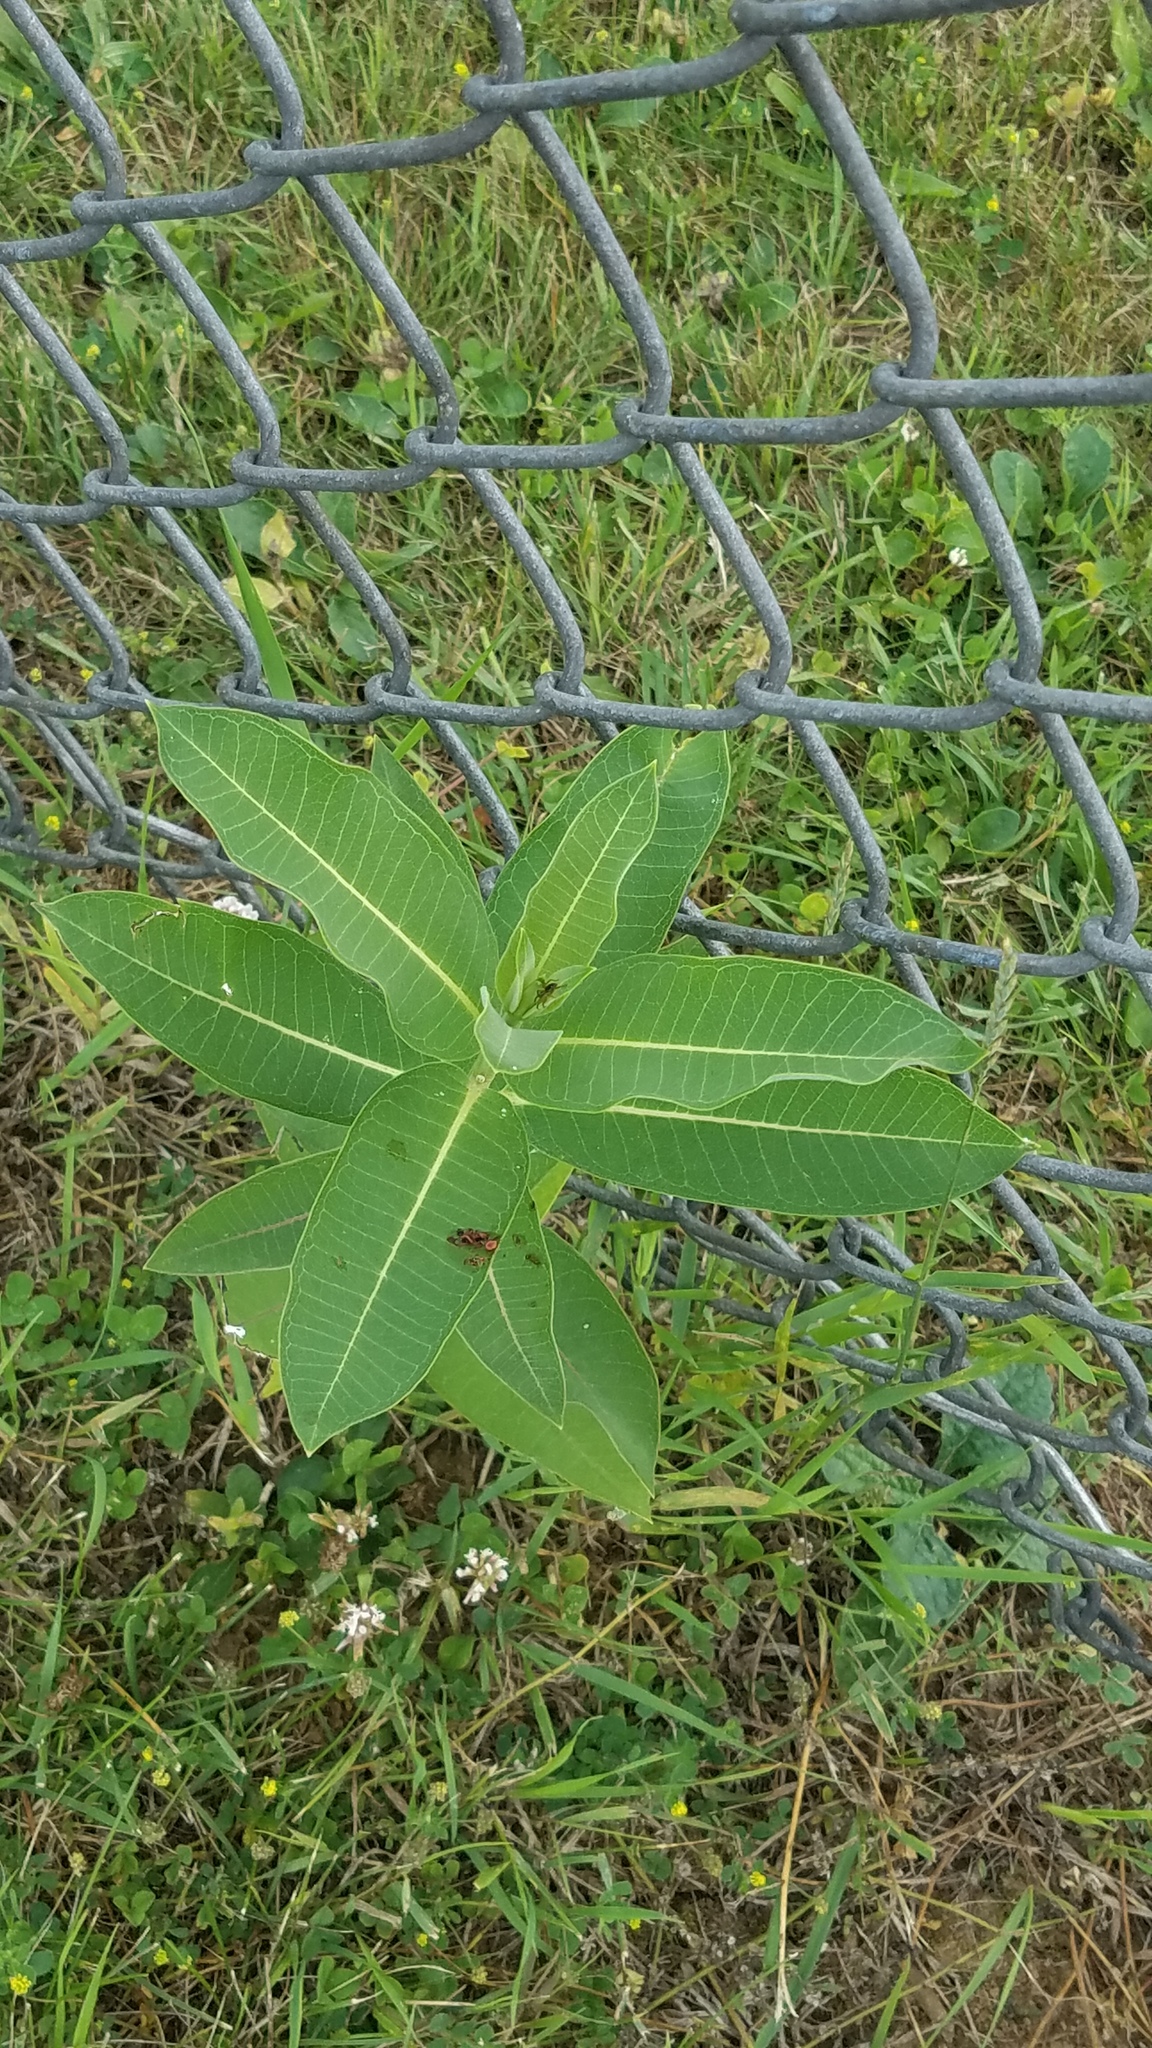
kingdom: Plantae
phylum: Tracheophyta
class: Magnoliopsida
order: Gentianales
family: Apocynaceae
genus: Asclepias
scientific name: Asclepias syriaca
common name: Common milkweed
